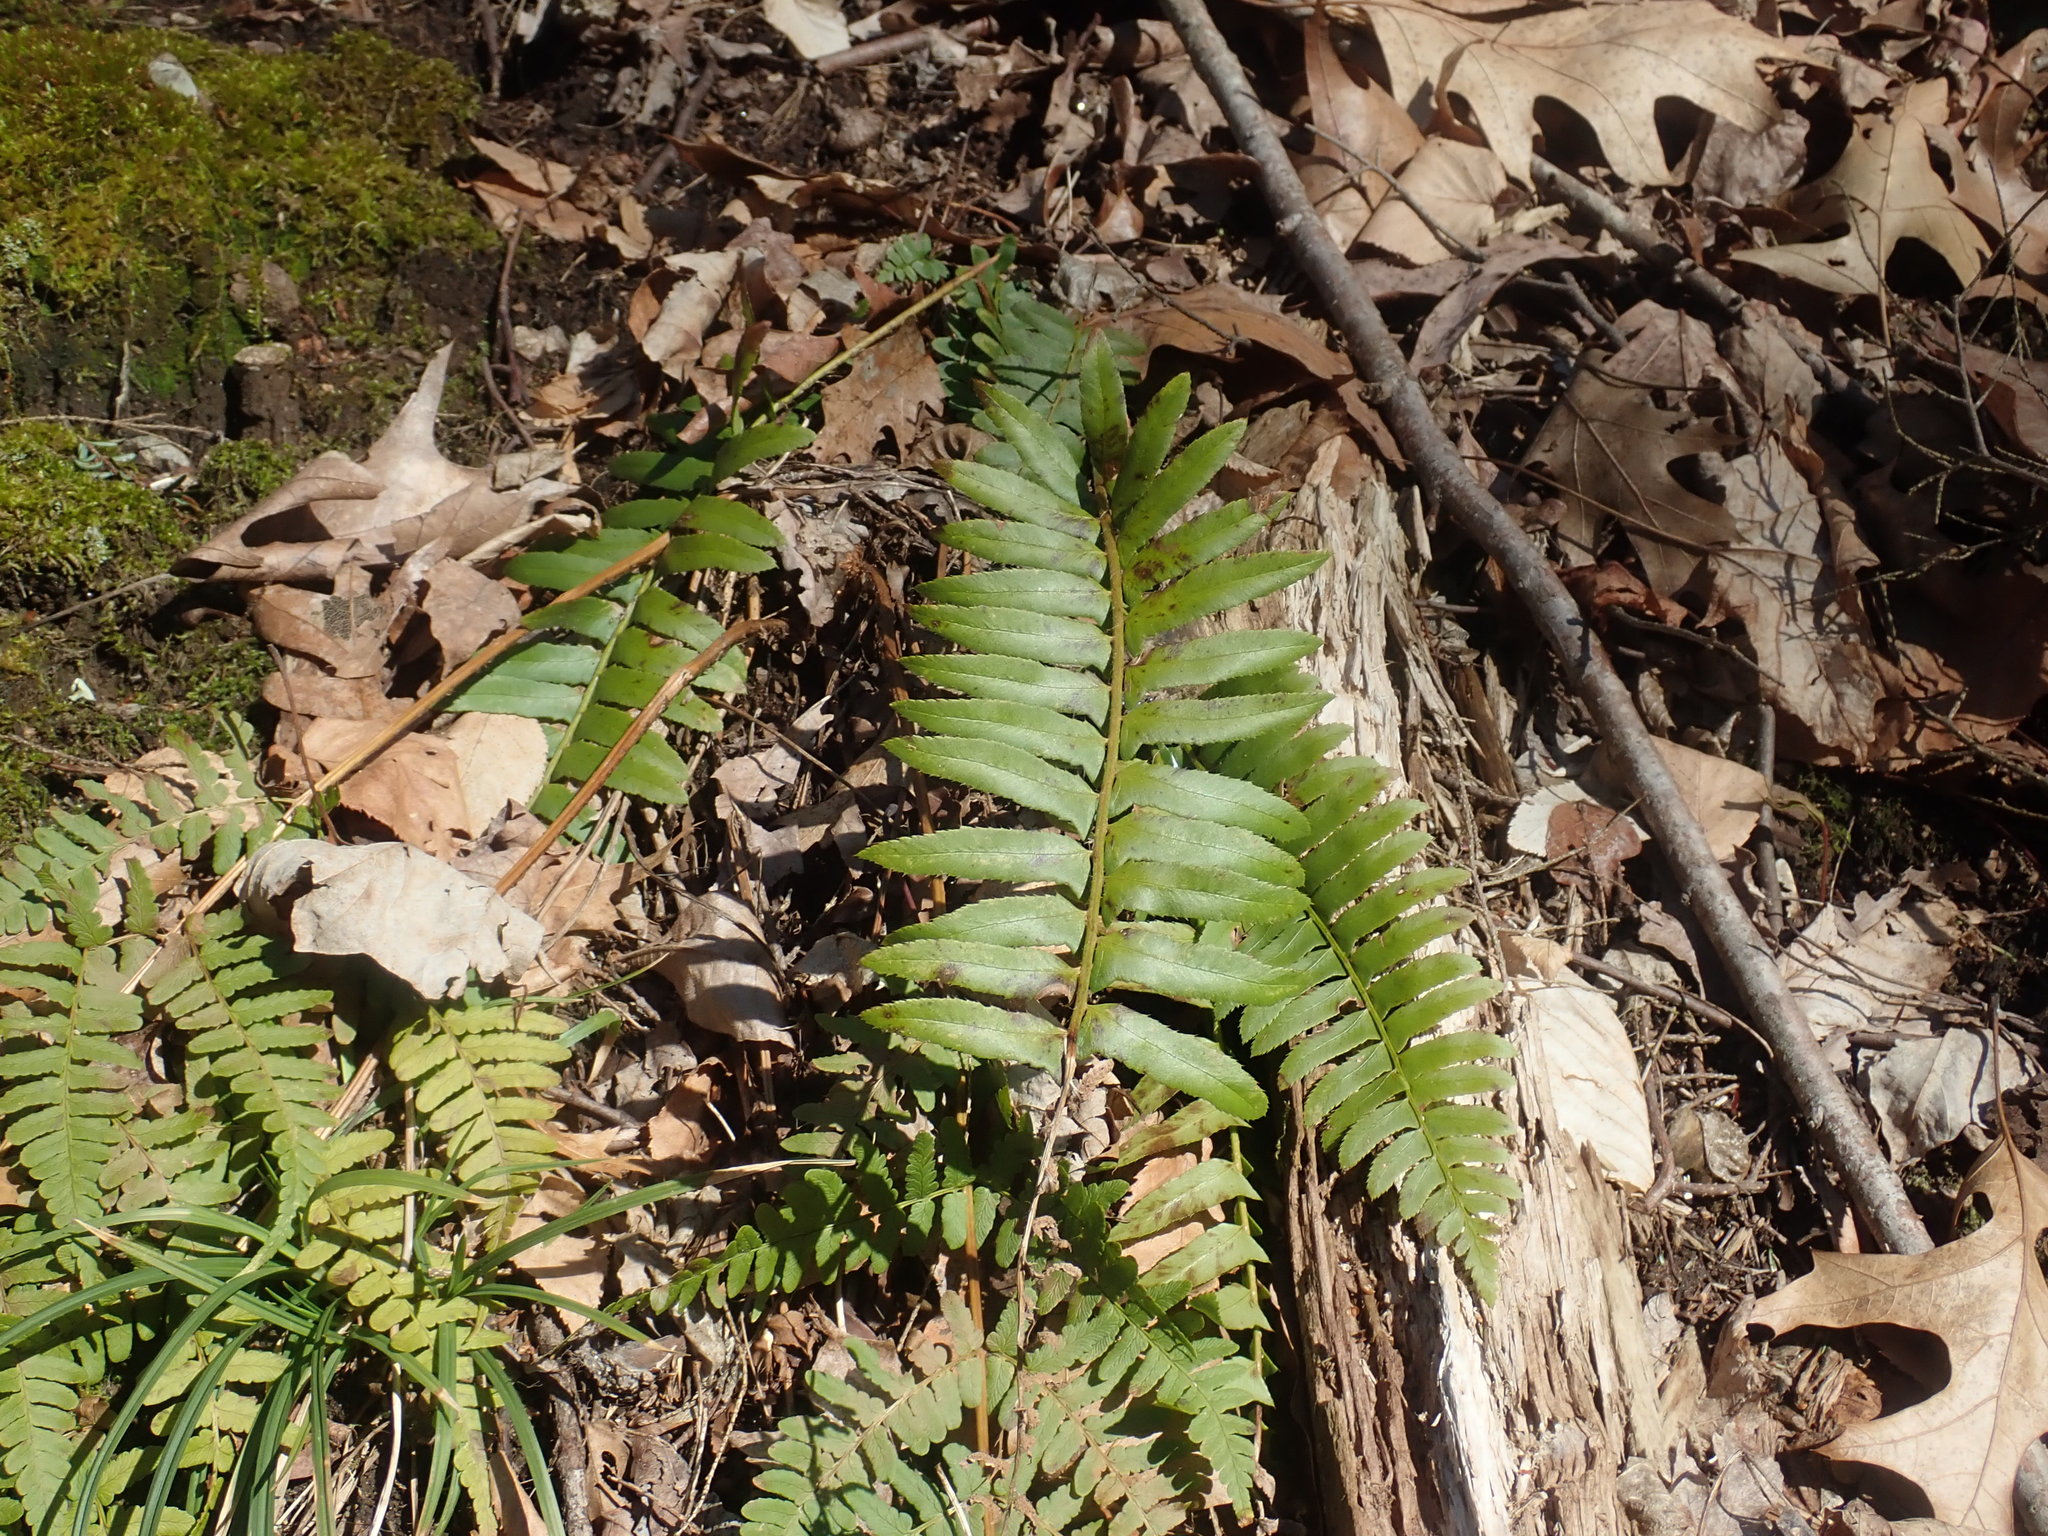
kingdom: Plantae
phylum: Tracheophyta
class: Polypodiopsida
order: Polypodiales
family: Dryopteridaceae
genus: Polystichum
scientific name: Polystichum acrostichoides
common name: Christmas fern
